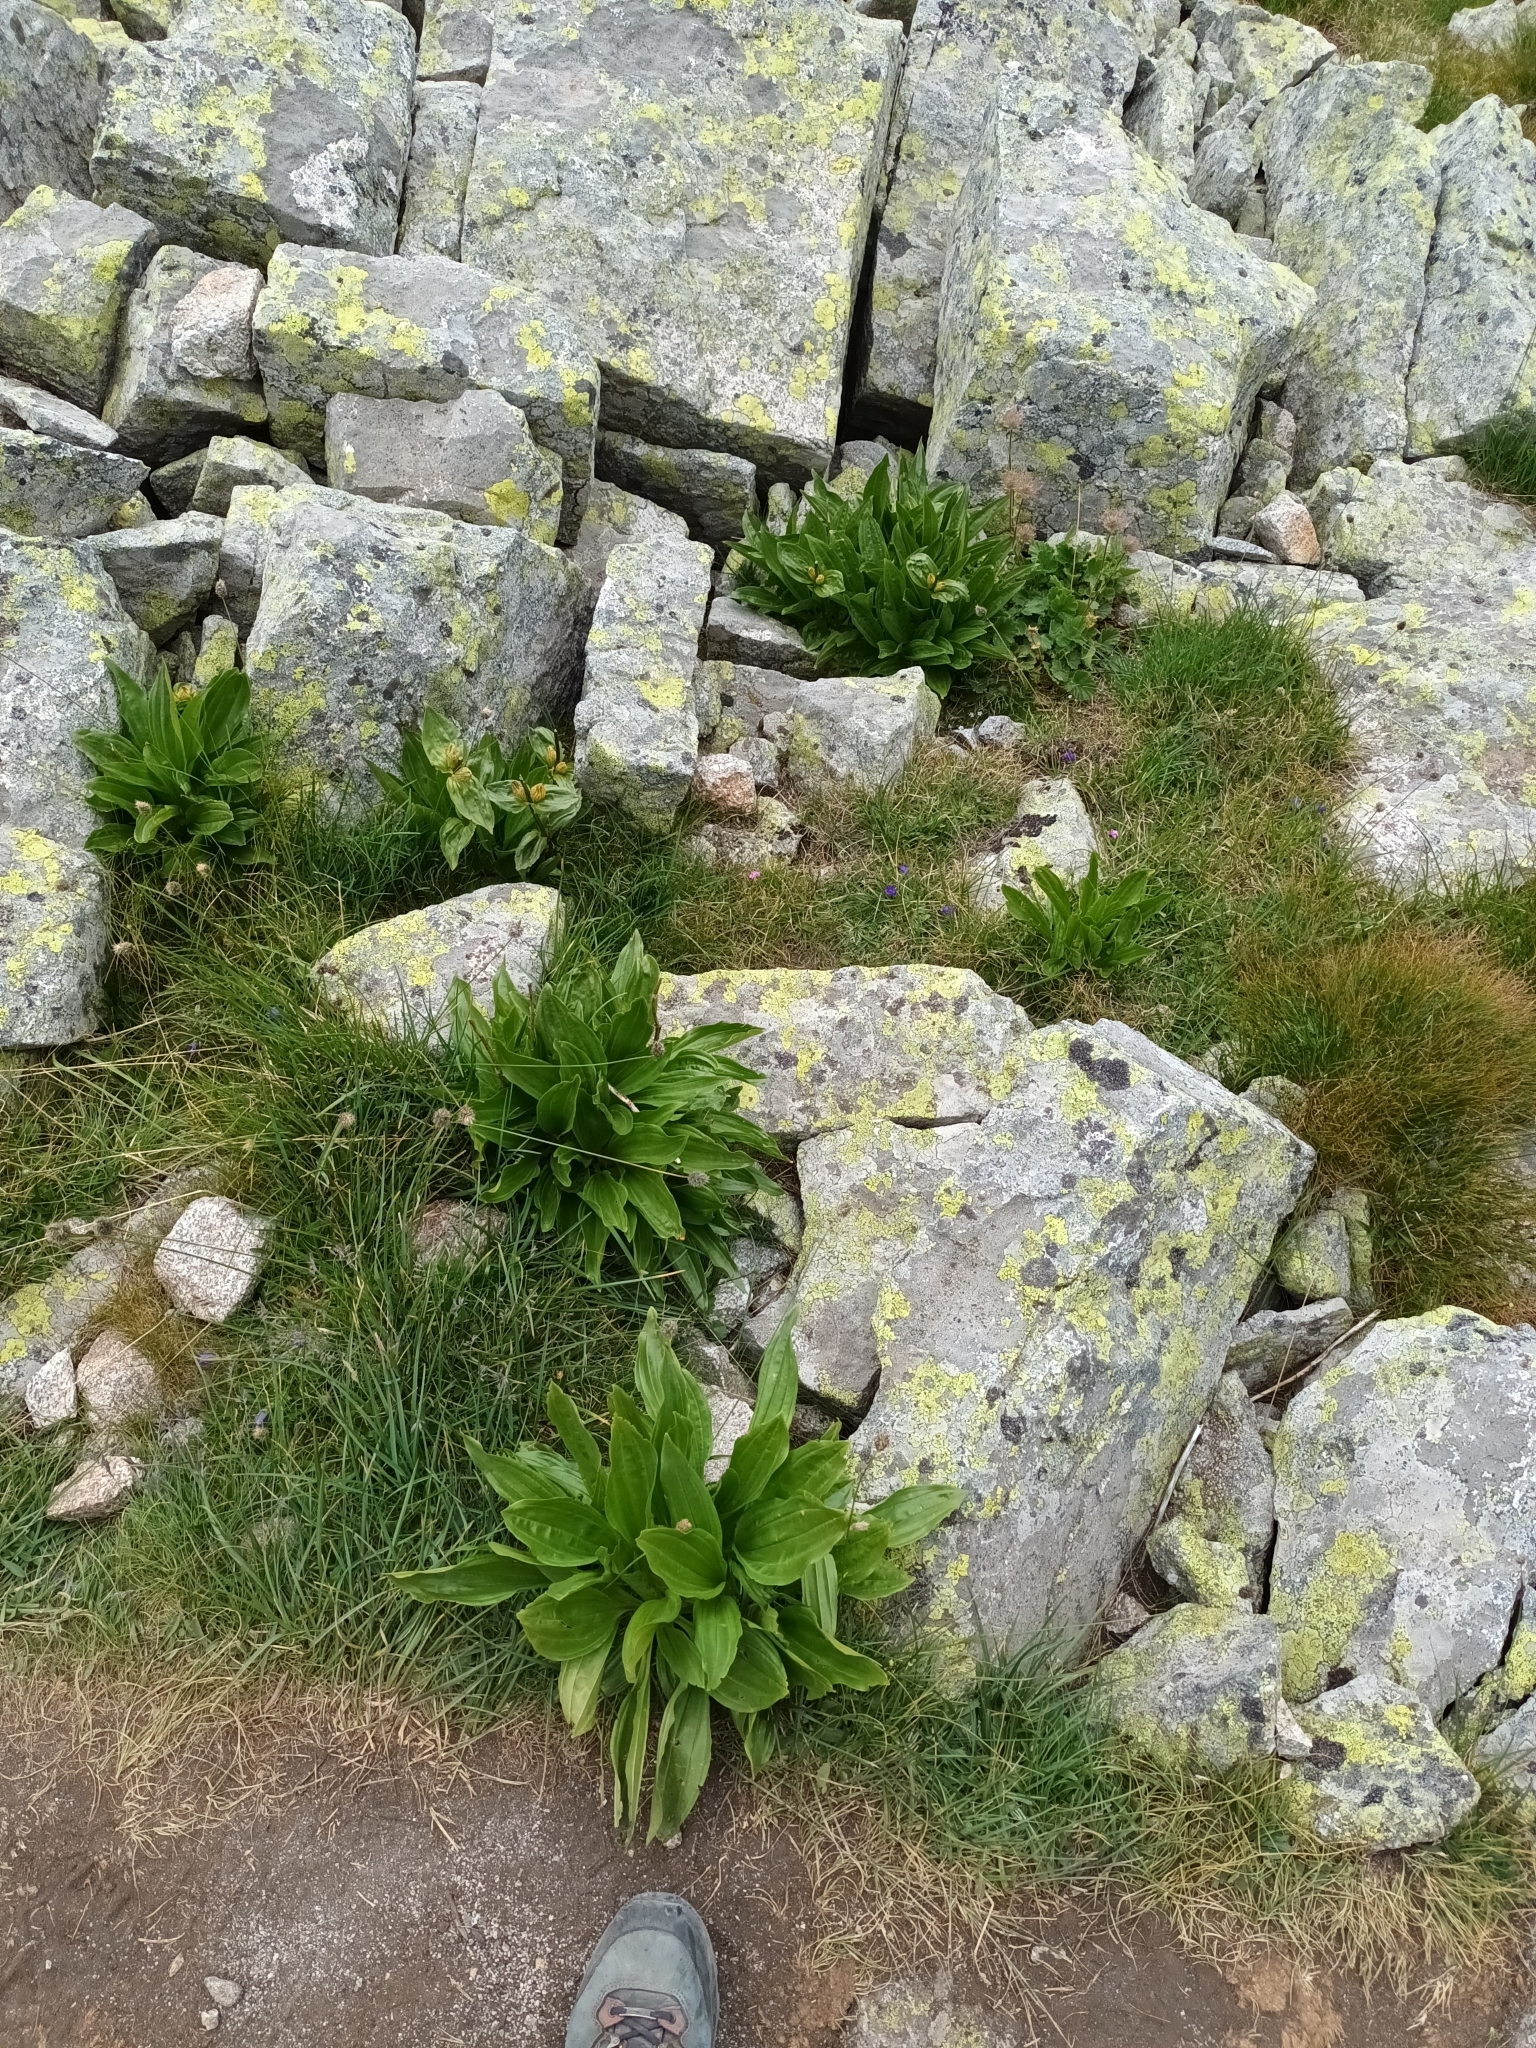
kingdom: Plantae
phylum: Tracheophyta
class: Magnoliopsida
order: Gentianales
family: Gentianaceae
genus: Gentiana
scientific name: Gentiana punctata
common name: Spotted gentian
